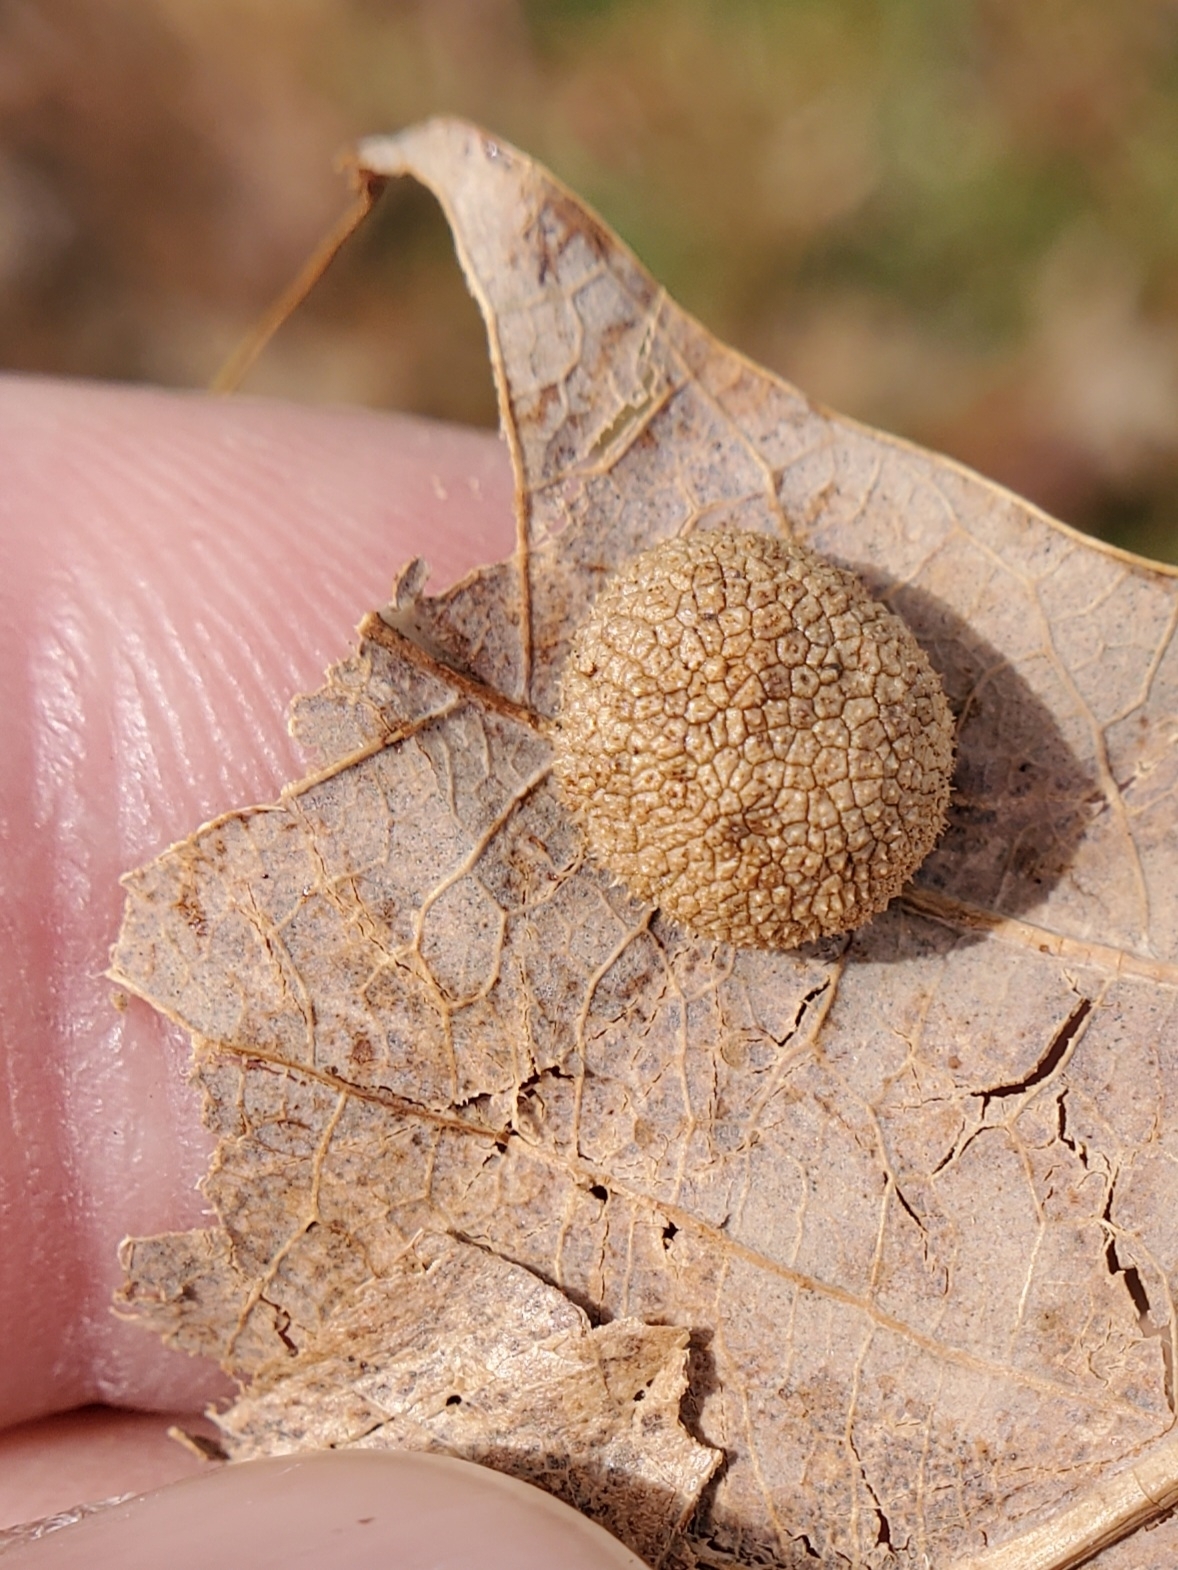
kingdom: Animalia
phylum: Arthropoda
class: Insecta
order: Hymenoptera
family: Cynipidae
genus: Acraspis
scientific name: Acraspis
